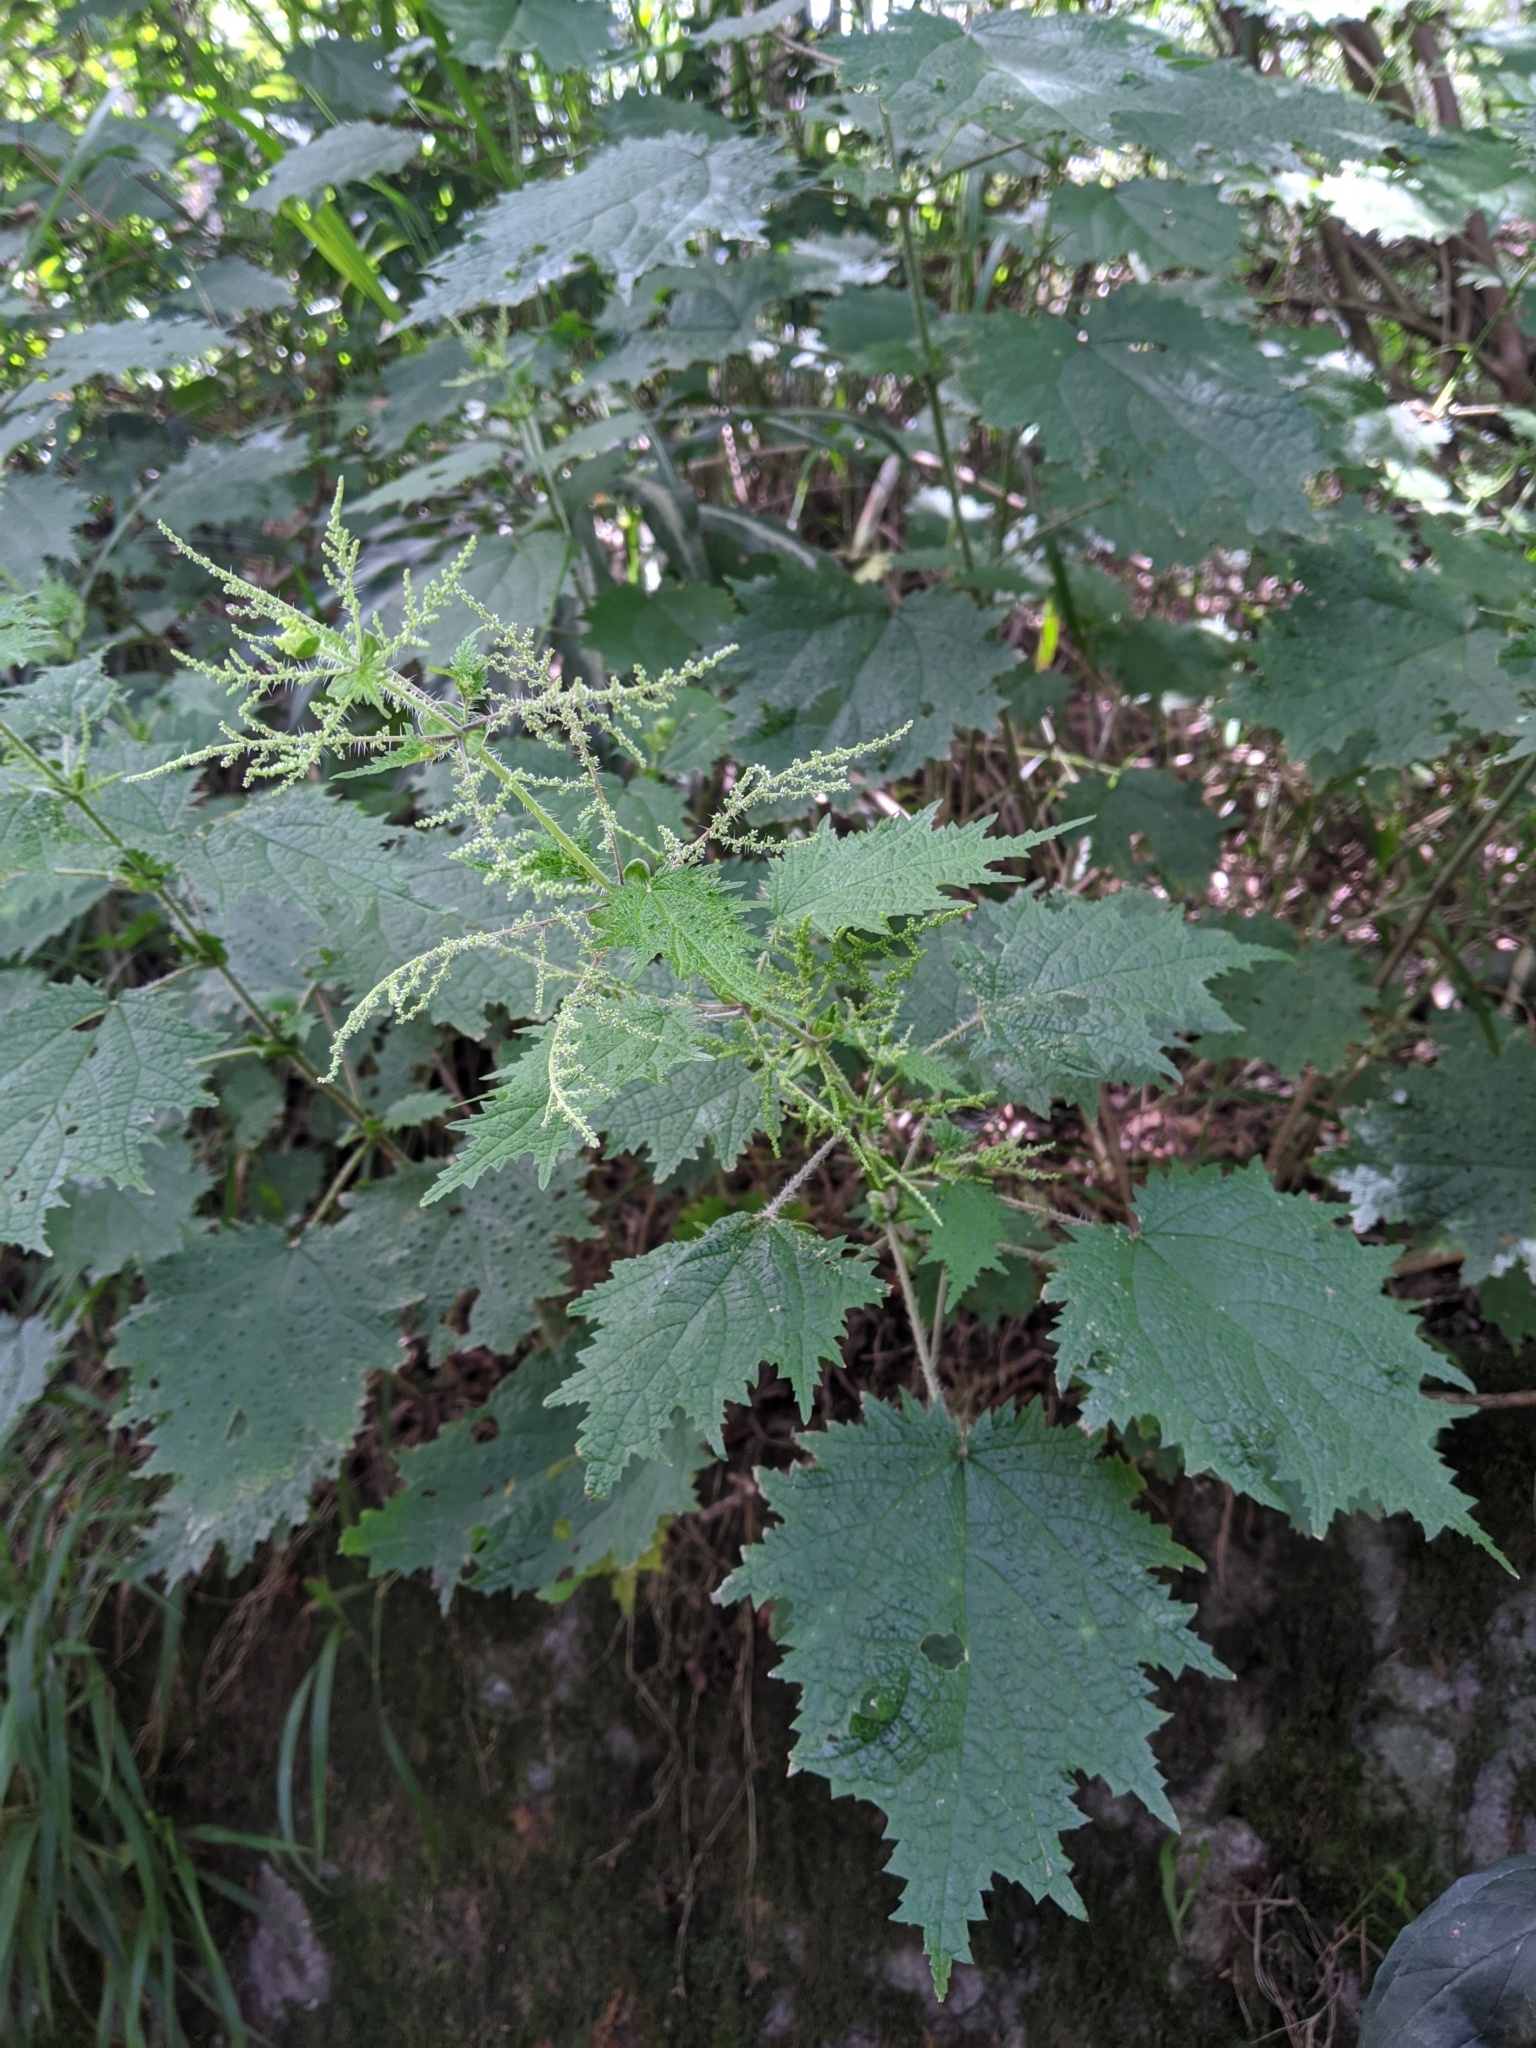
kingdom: Plantae
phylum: Tracheophyta
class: Magnoliopsida
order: Rosales
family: Urticaceae
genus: Urtica
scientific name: Urtica thunbergiana
